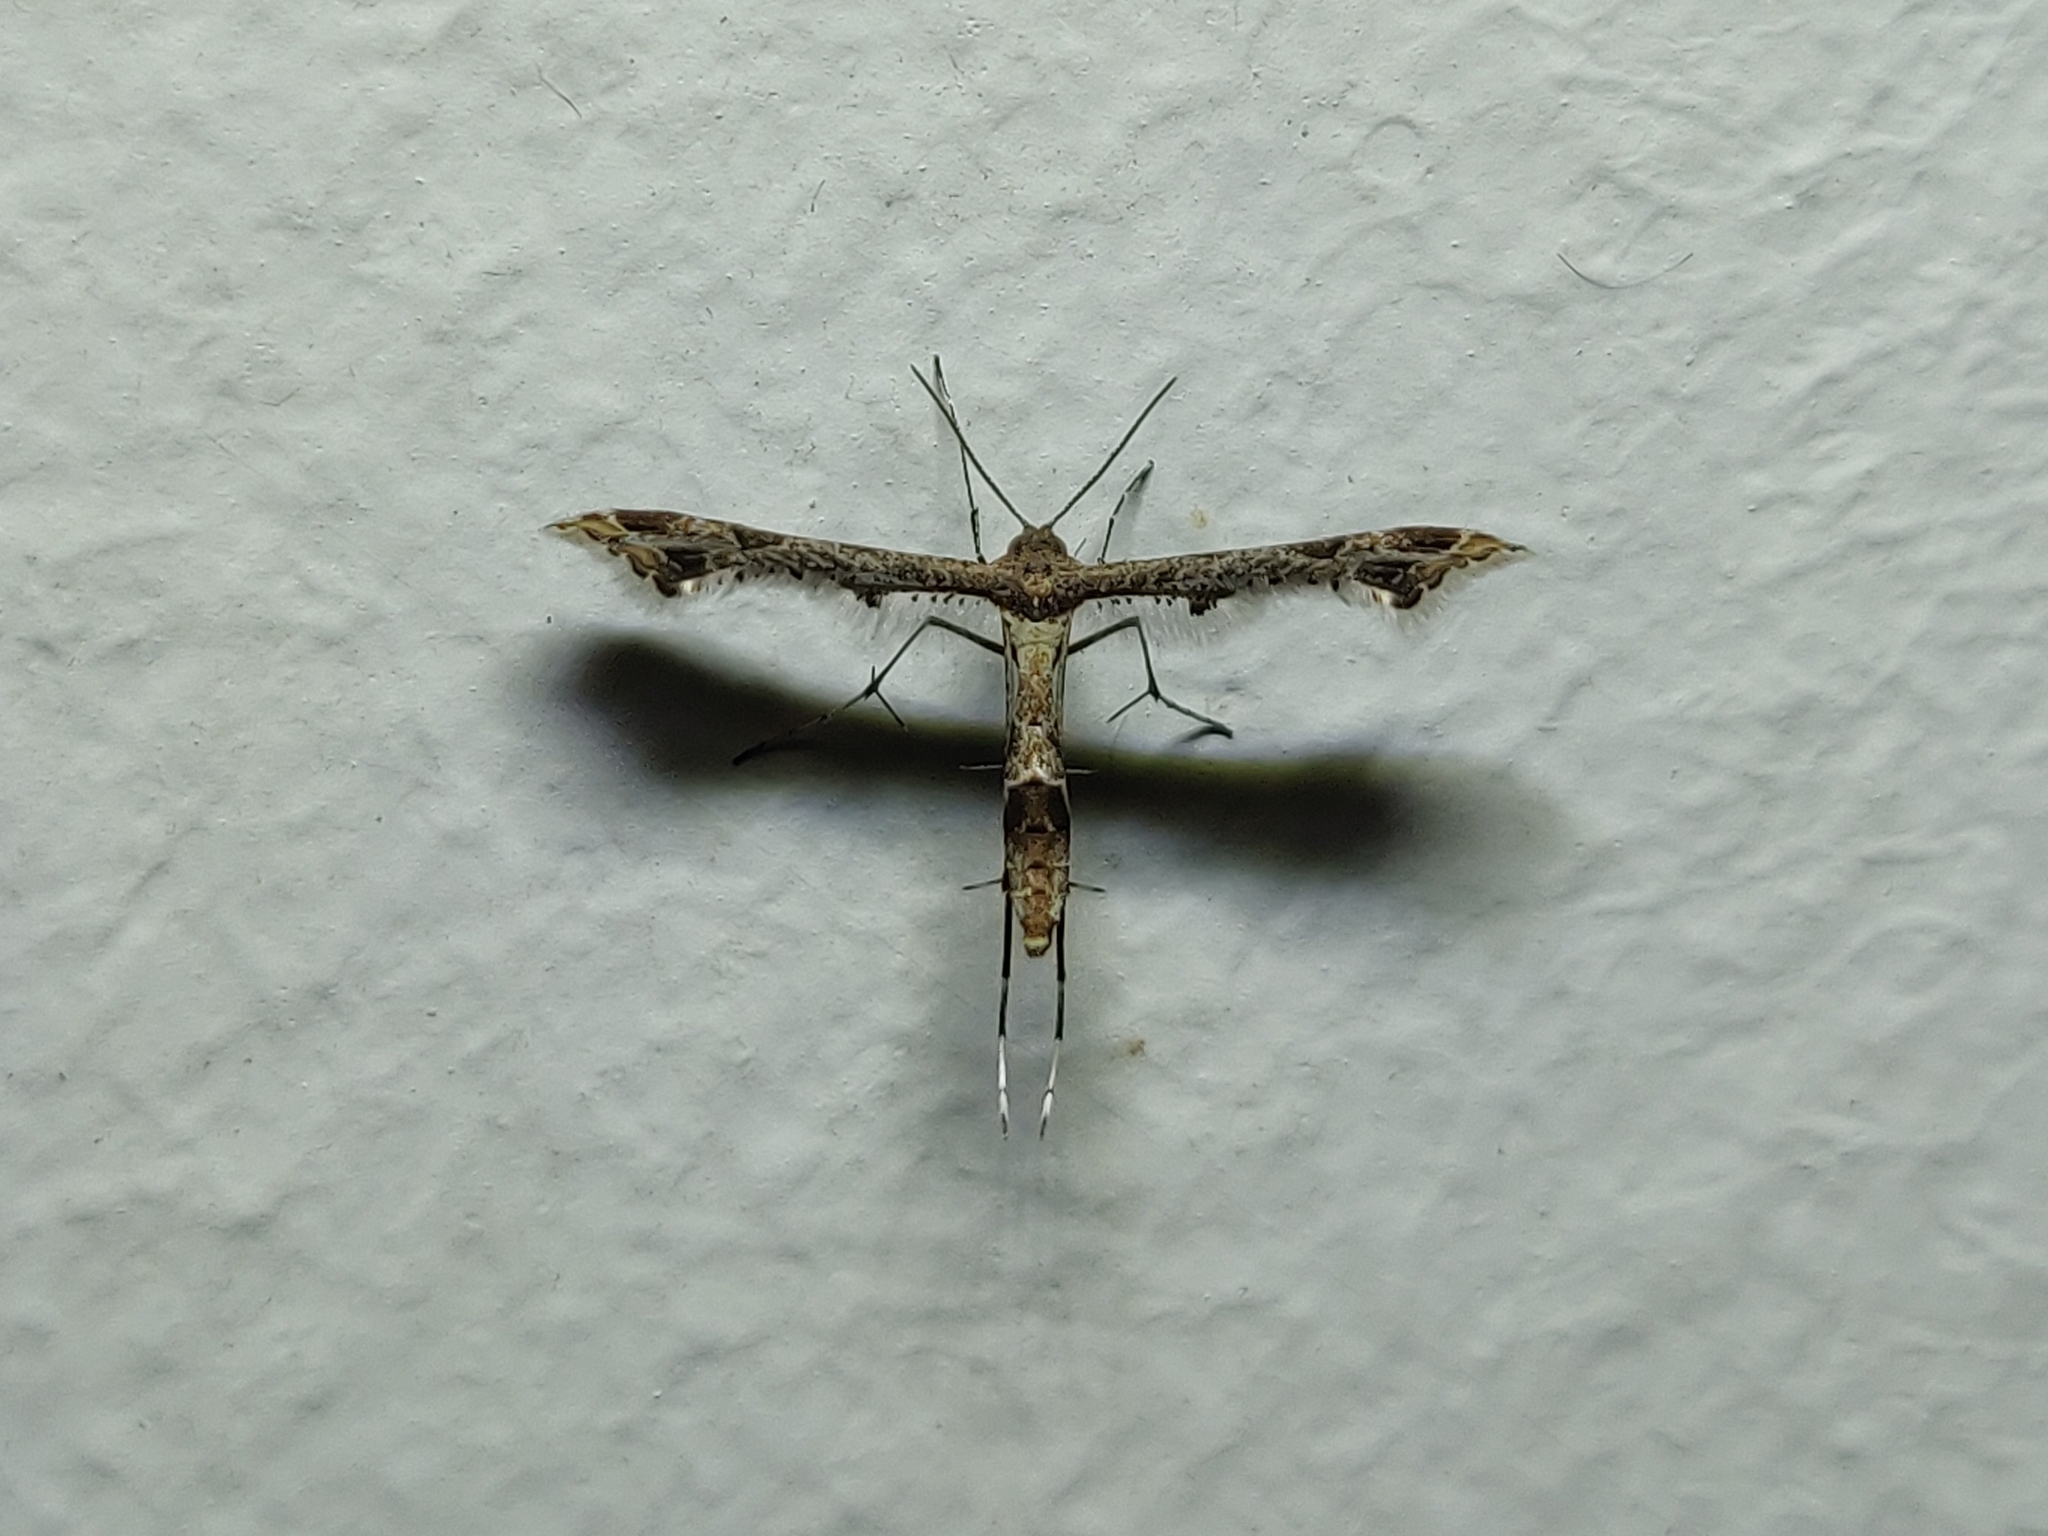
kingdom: Animalia
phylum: Arthropoda
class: Insecta
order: Lepidoptera
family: Pterophoridae
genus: Lantanophaga
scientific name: Lantanophaga pusillidactylus
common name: Moth
